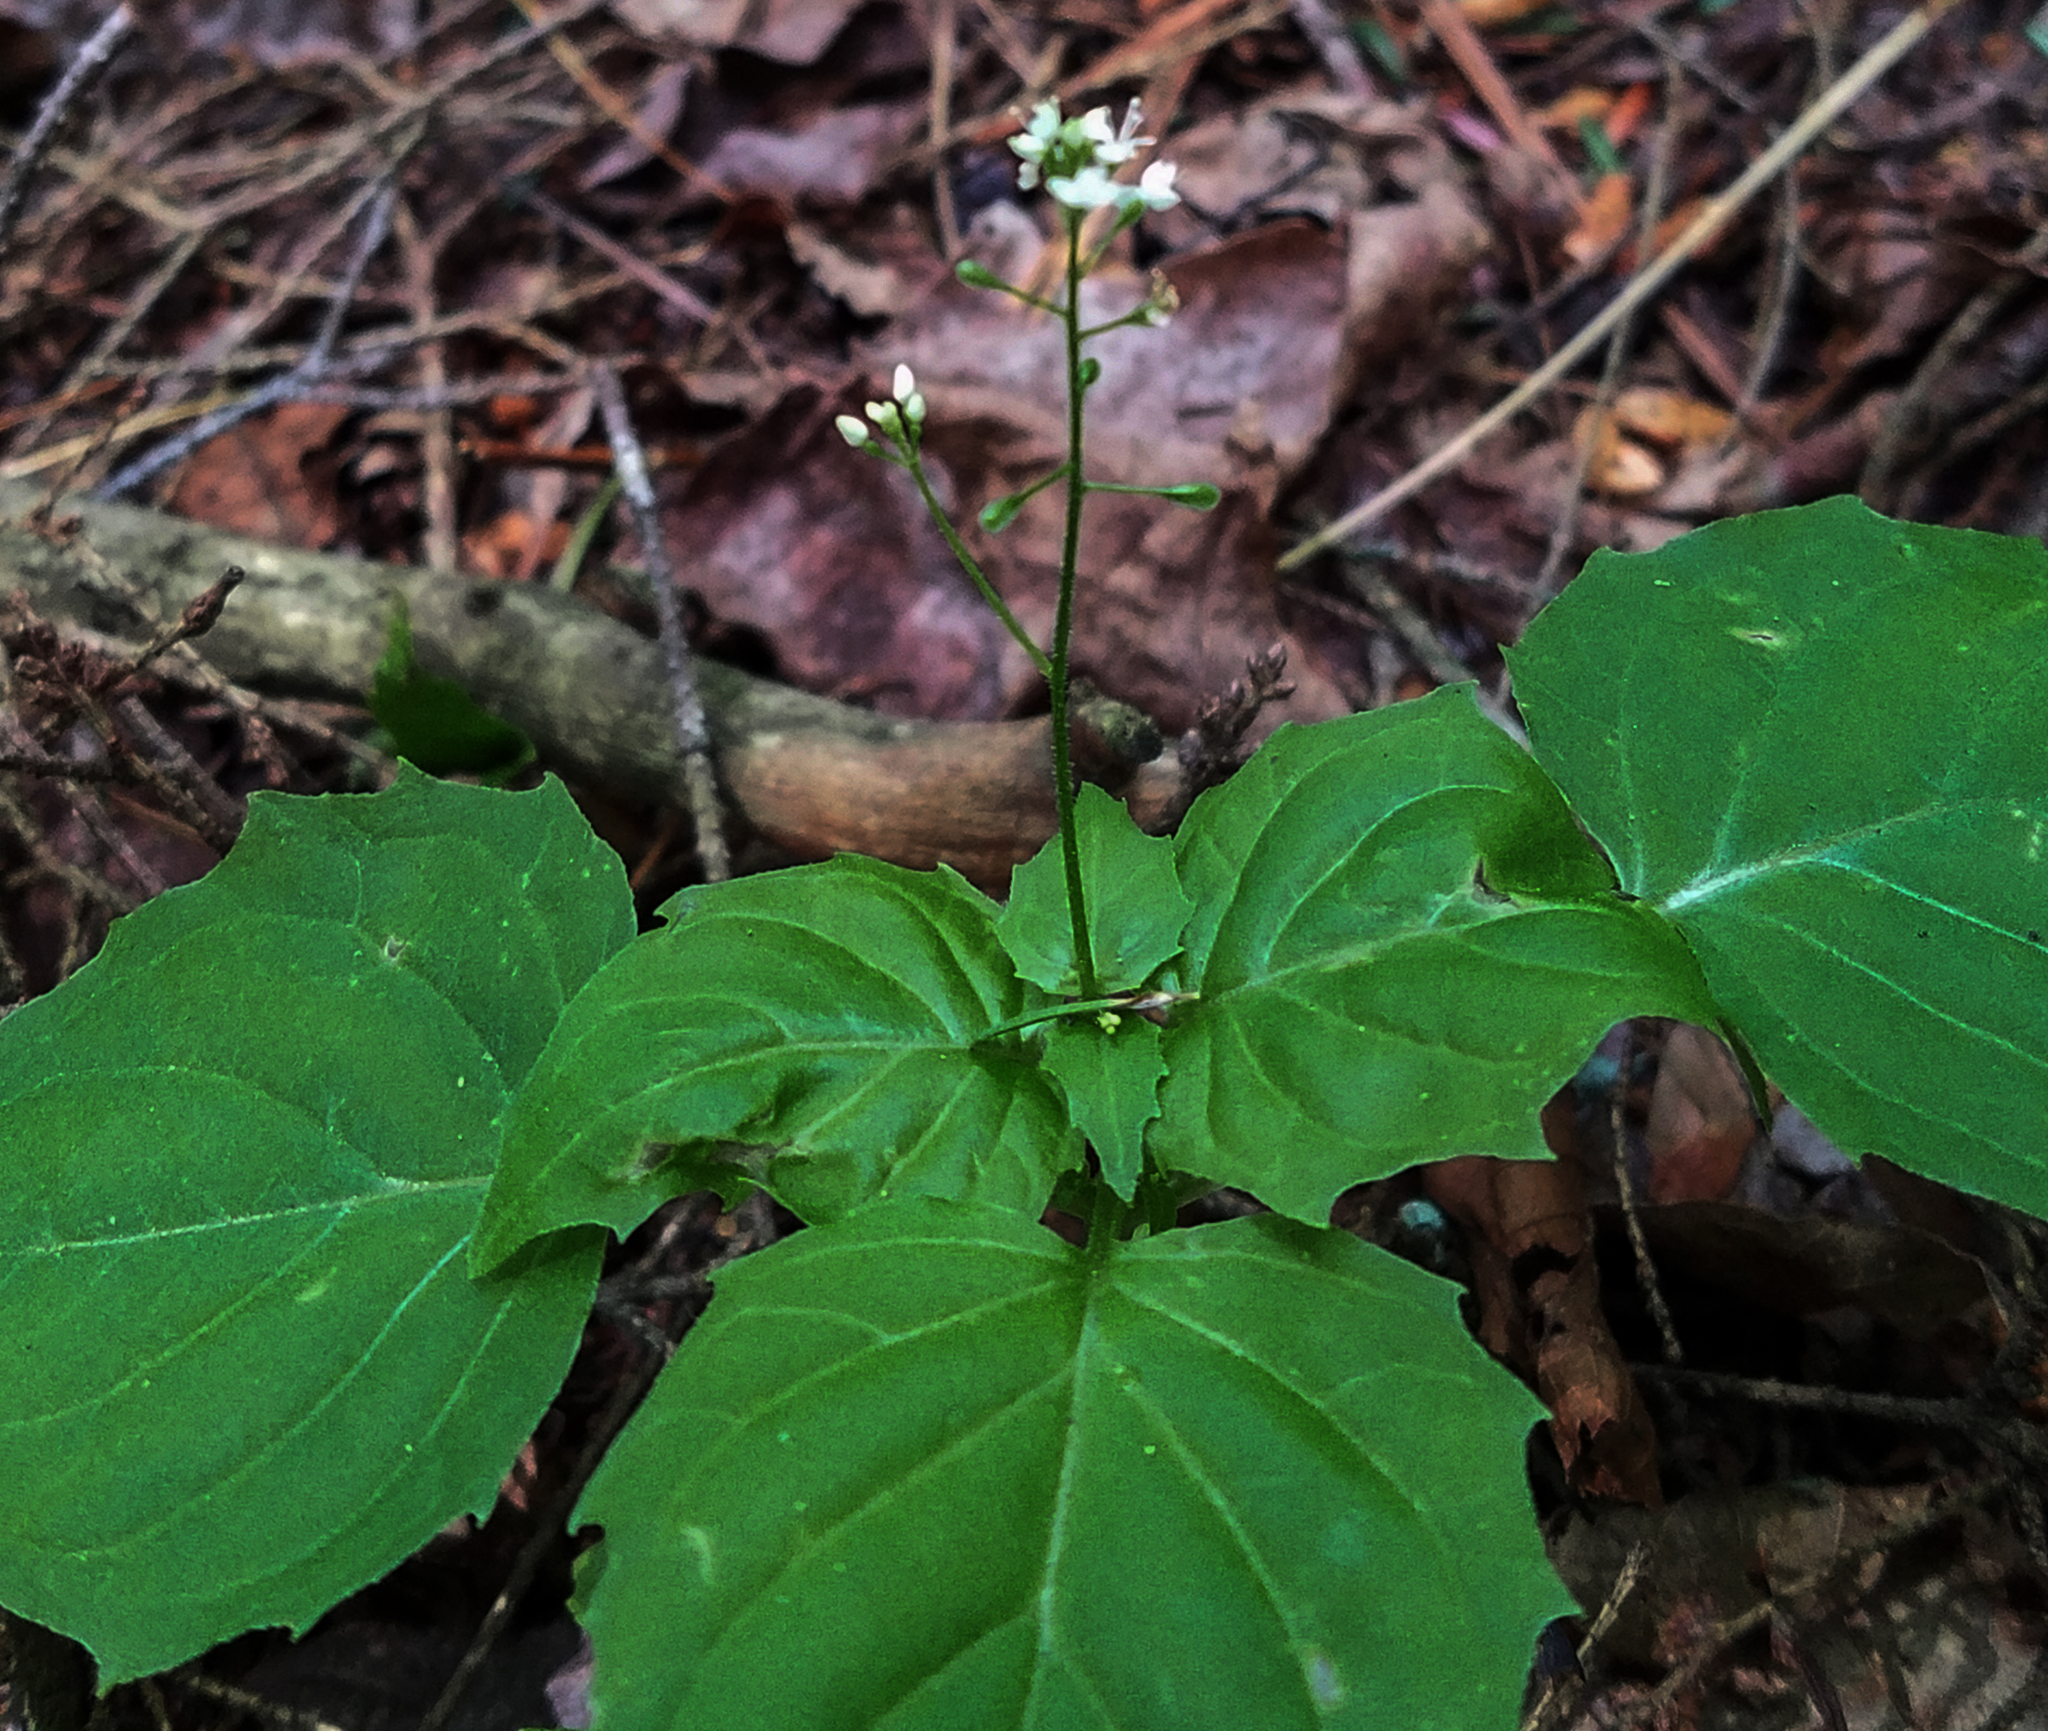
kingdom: Plantae
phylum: Tracheophyta
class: Magnoliopsida
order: Myrtales
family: Onagraceae
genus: Circaea
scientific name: Circaea alpina
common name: Alpine enchanter's-nightshade
